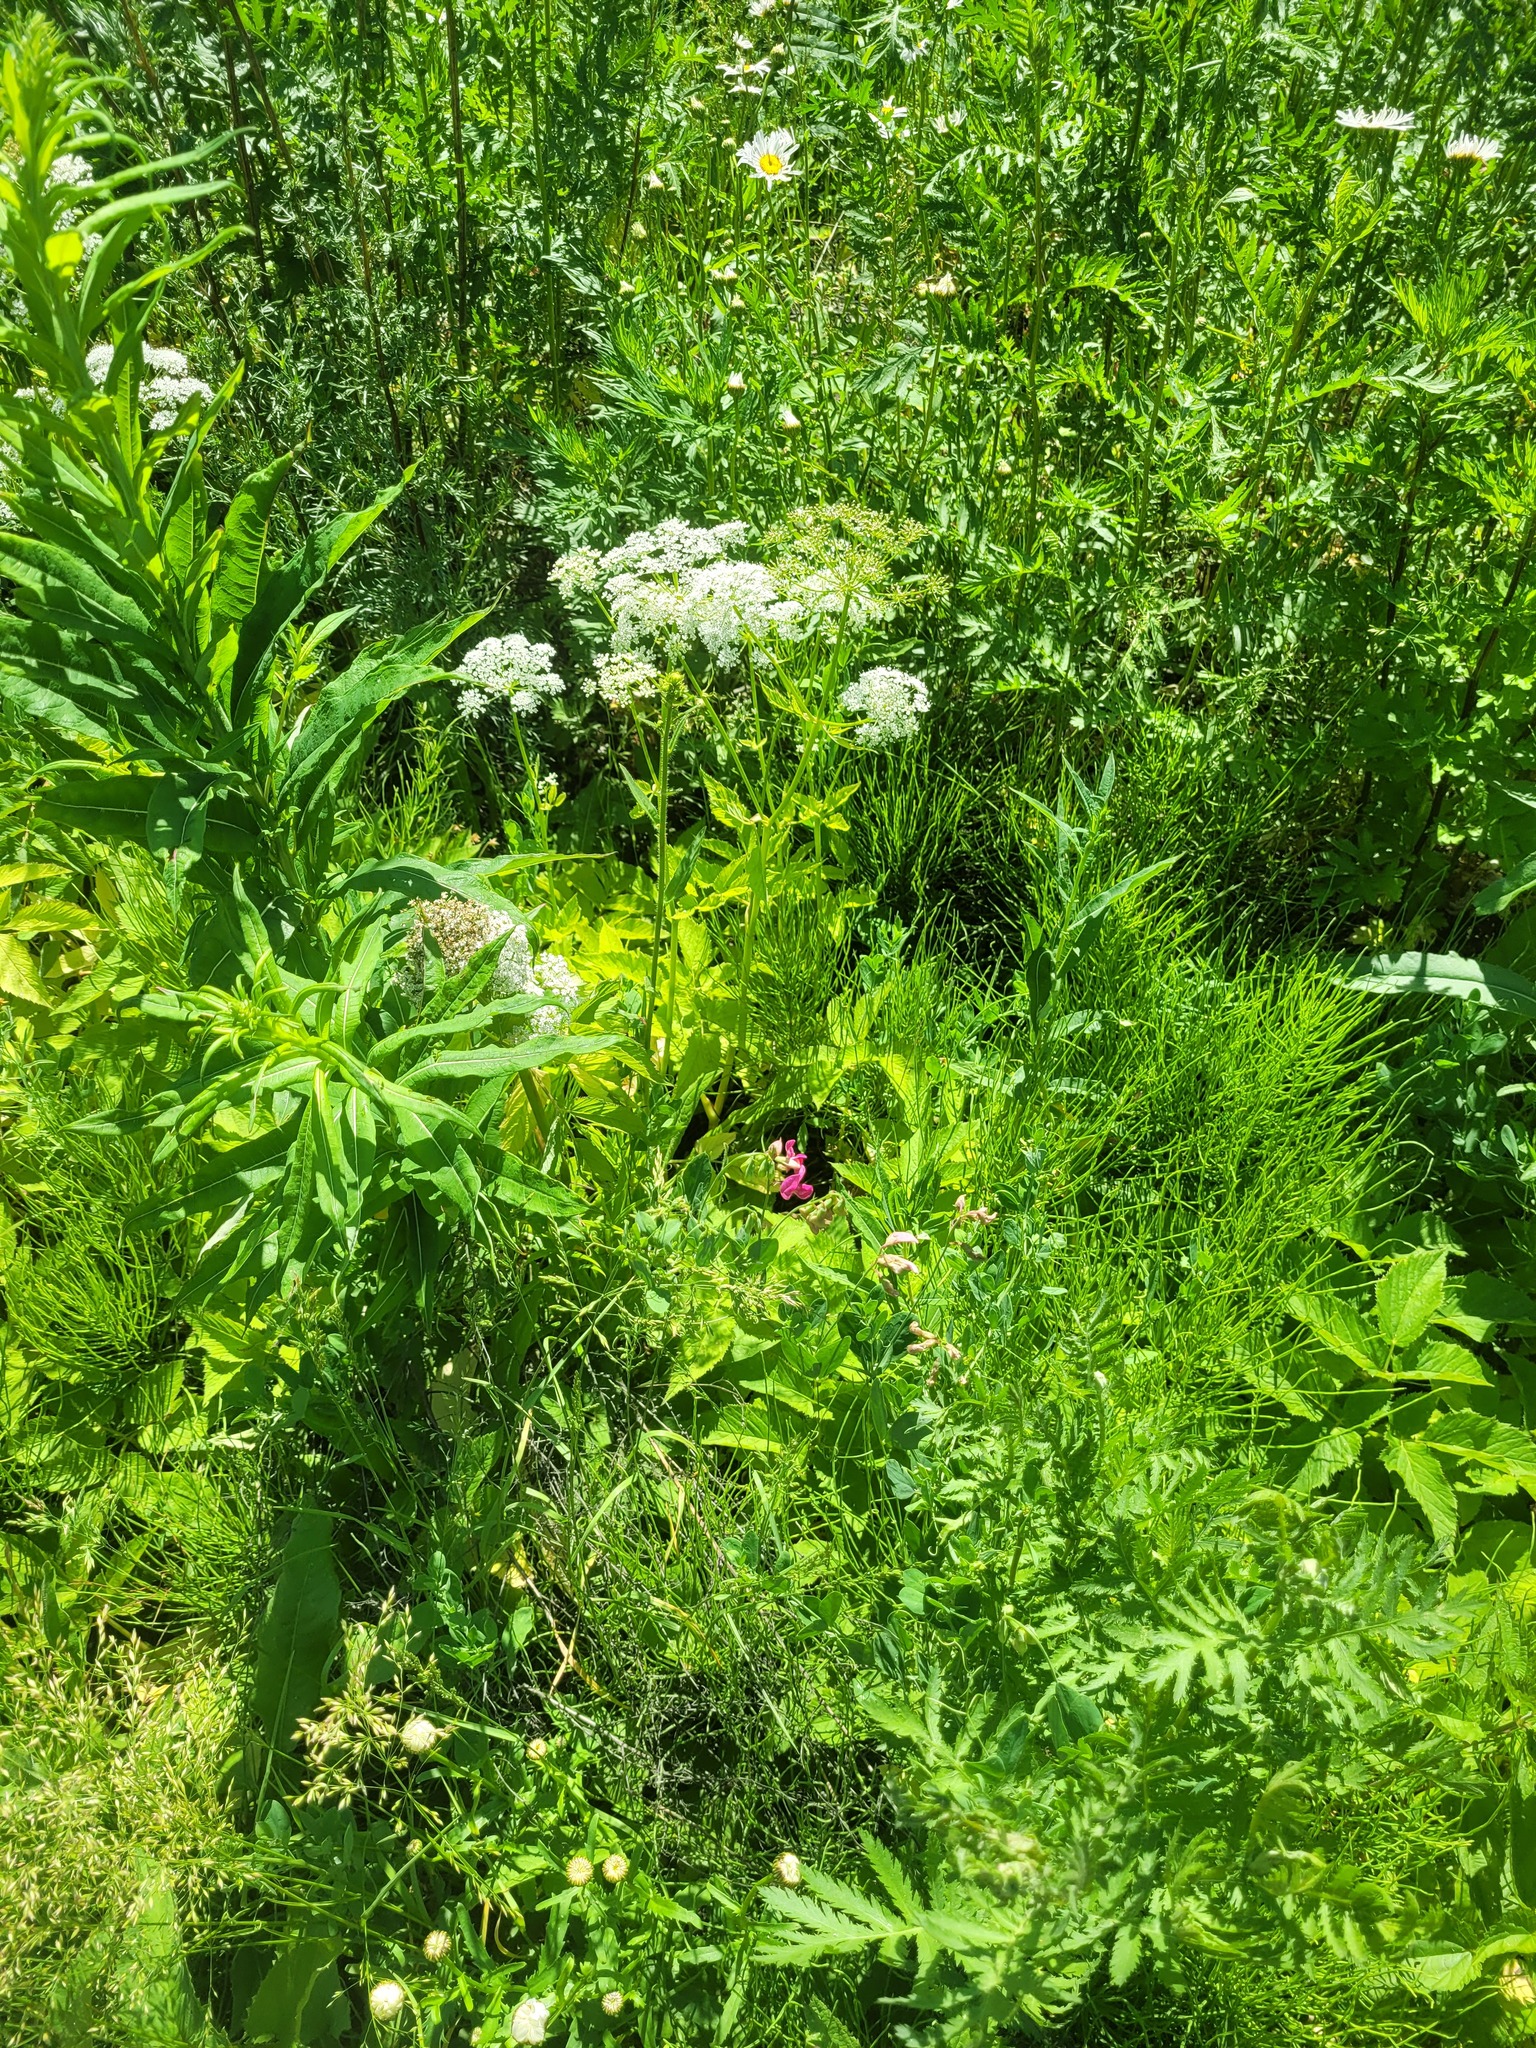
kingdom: Plantae
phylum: Tracheophyta
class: Magnoliopsida
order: Fabales
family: Fabaceae
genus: Lathyrus
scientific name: Lathyrus tuberosus
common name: Tuberous pea
